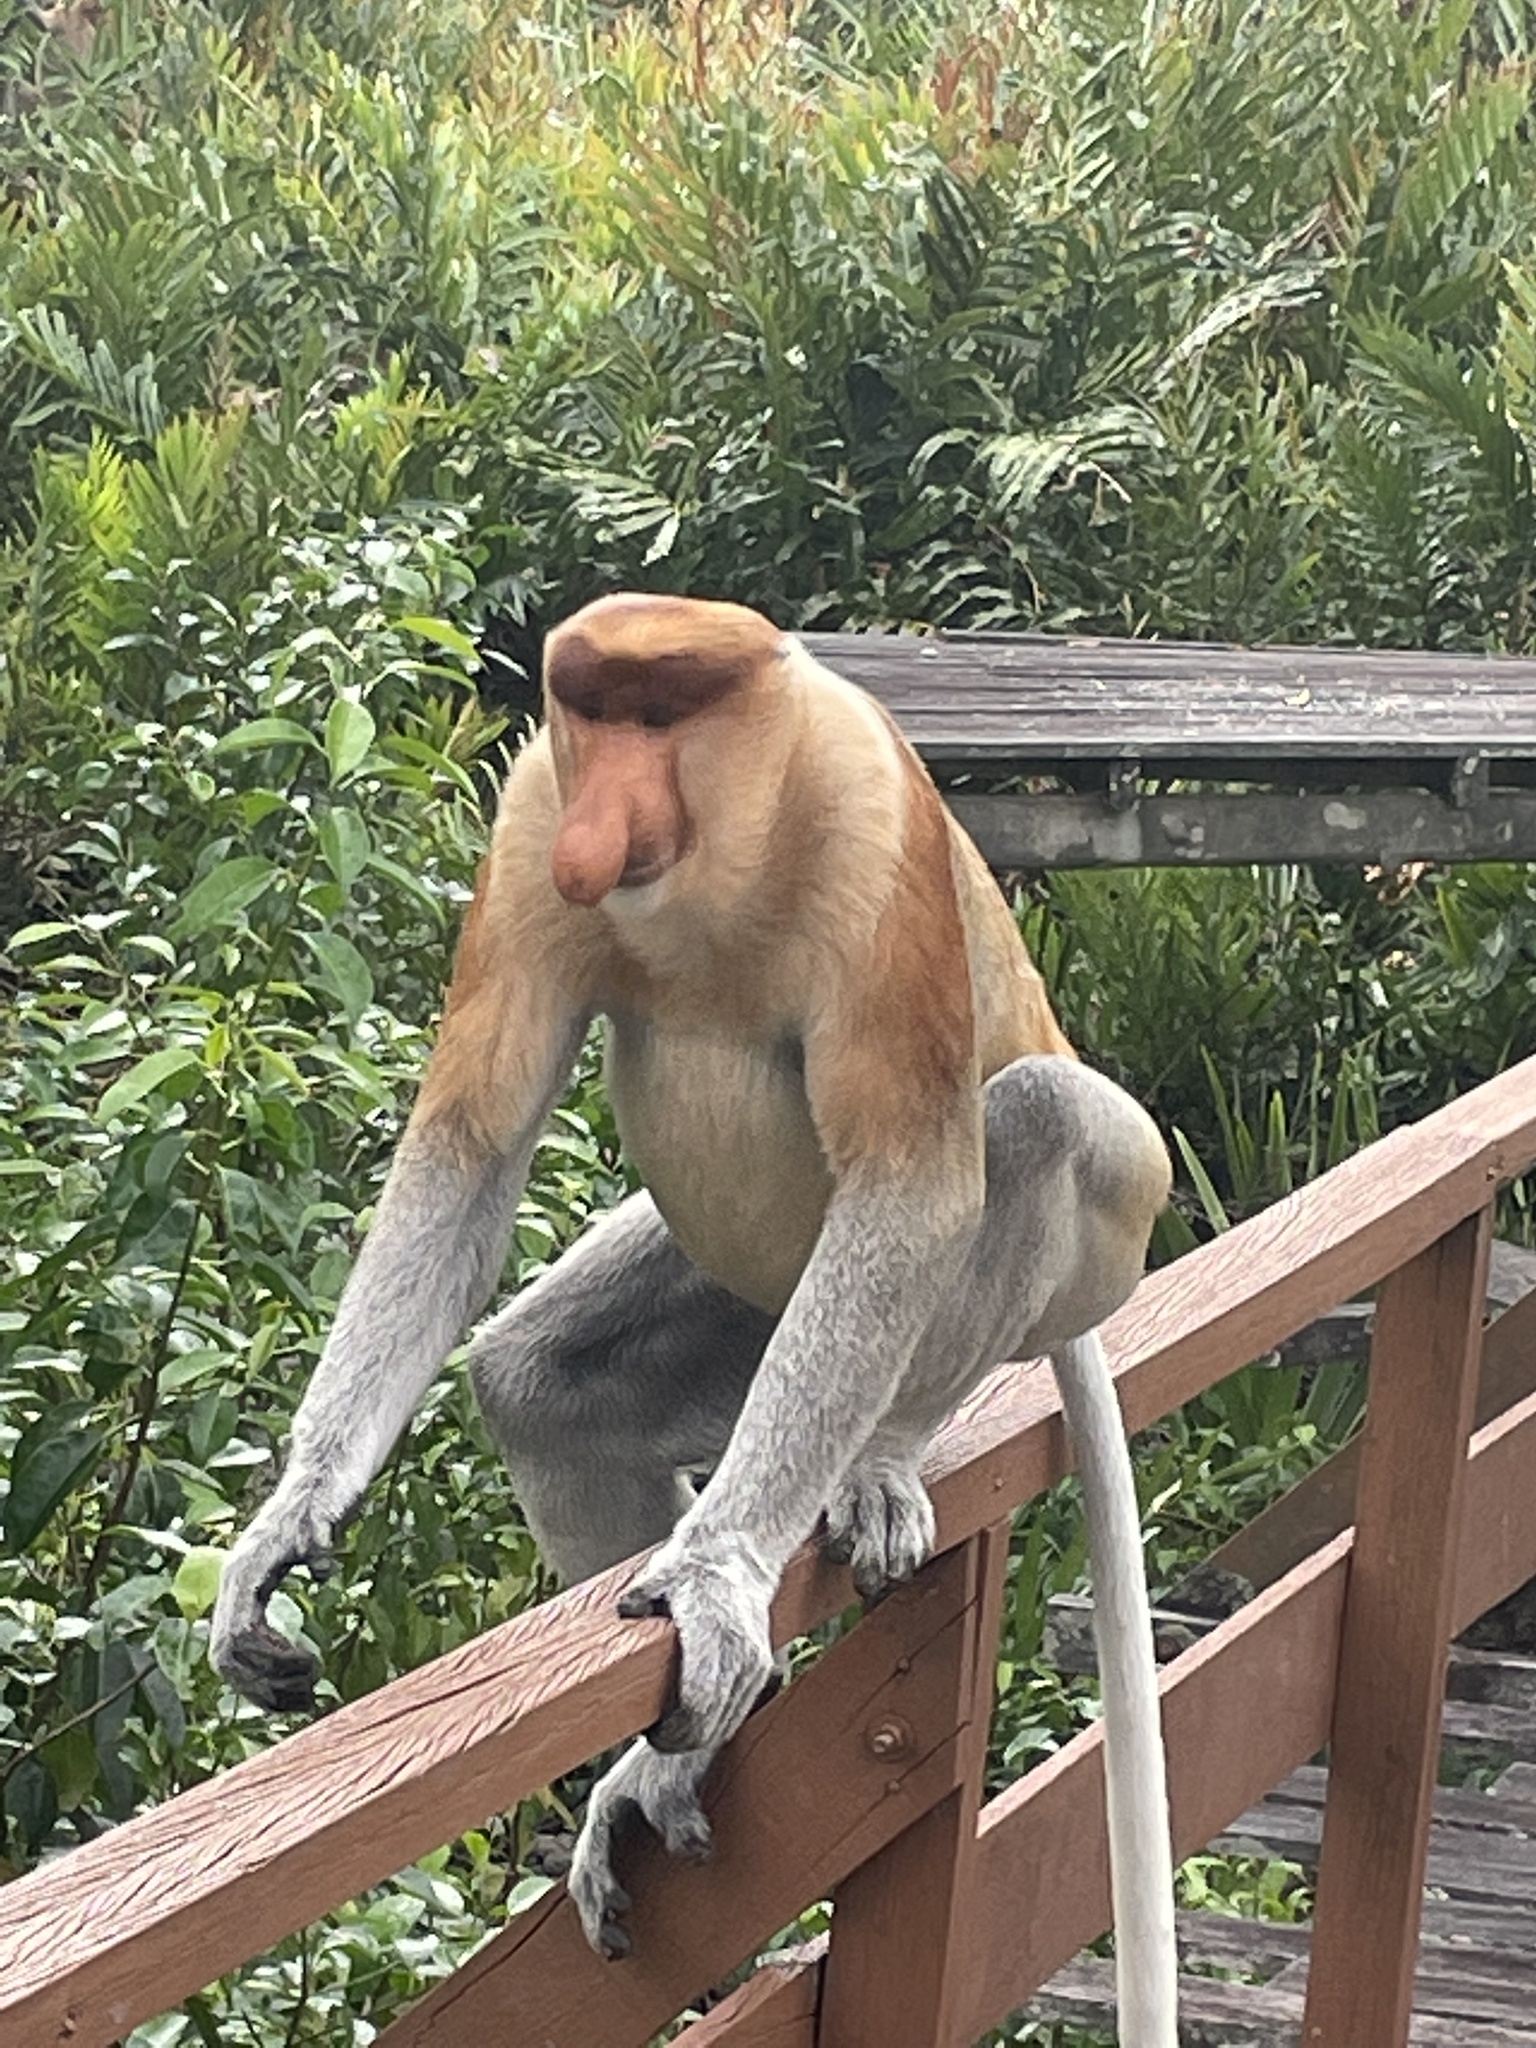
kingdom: Animalia
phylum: Chordata
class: Mammalia
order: Primates
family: Cercopithecidae
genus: Nasalis
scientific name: Nasalis larvatus
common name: Proboscis monkey
